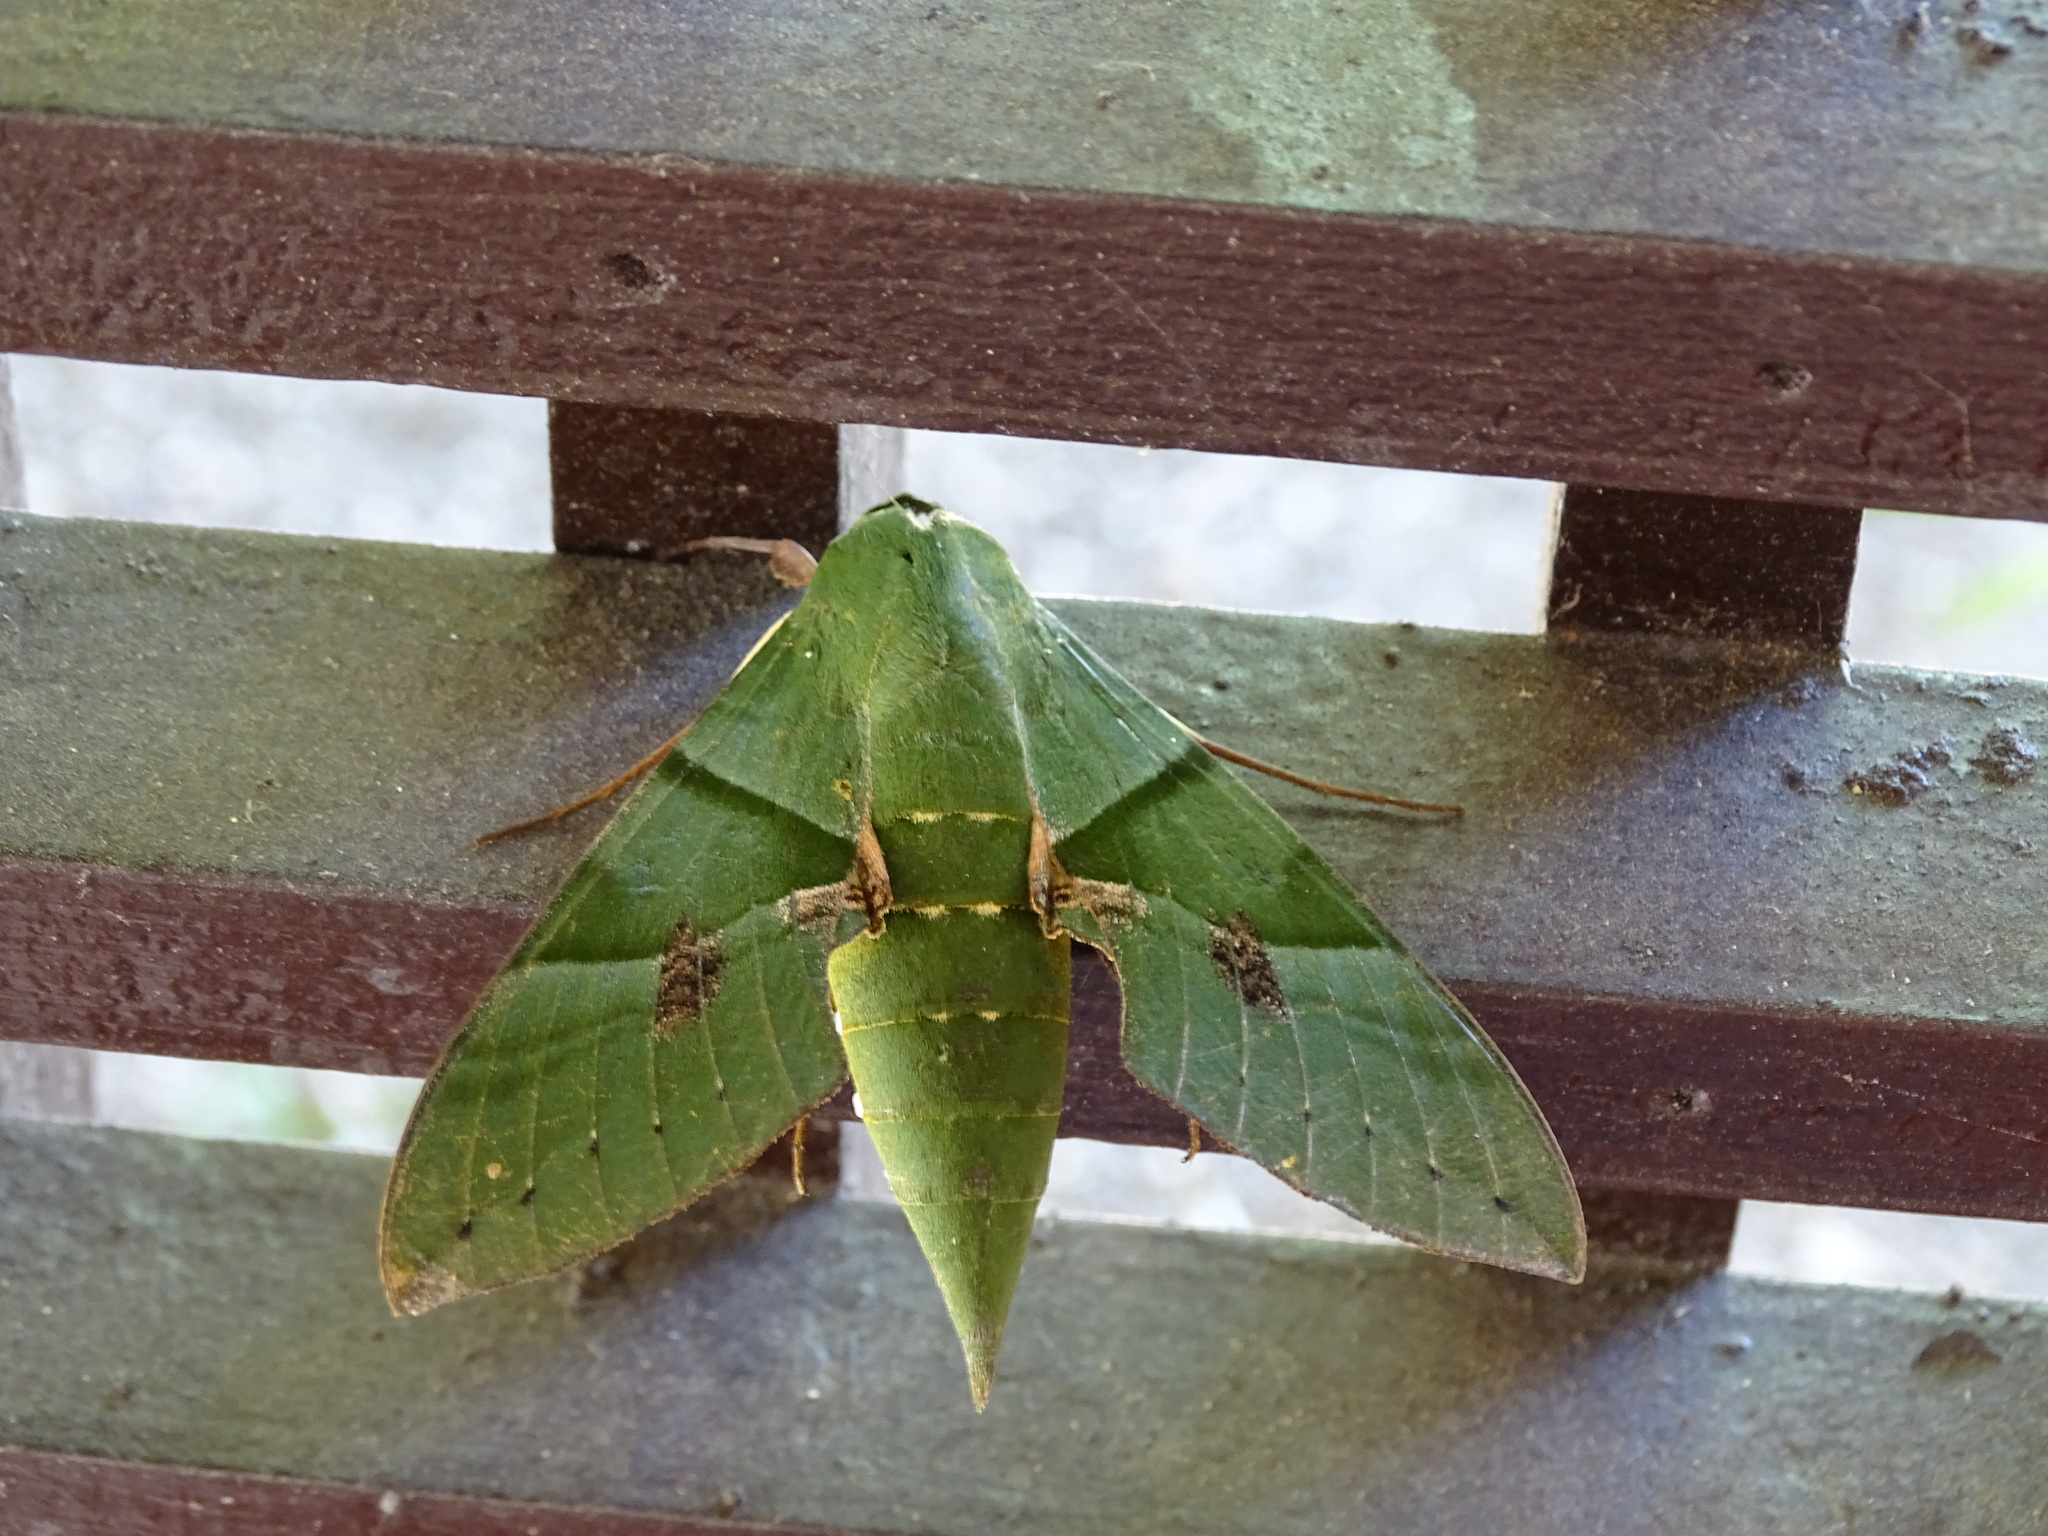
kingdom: Animalia
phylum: Arthropoda
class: Insecta
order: Lepidoptera
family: Sphingidae
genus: Eumorpha
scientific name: Eumorpha labruscae
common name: Gaudy sphinx
